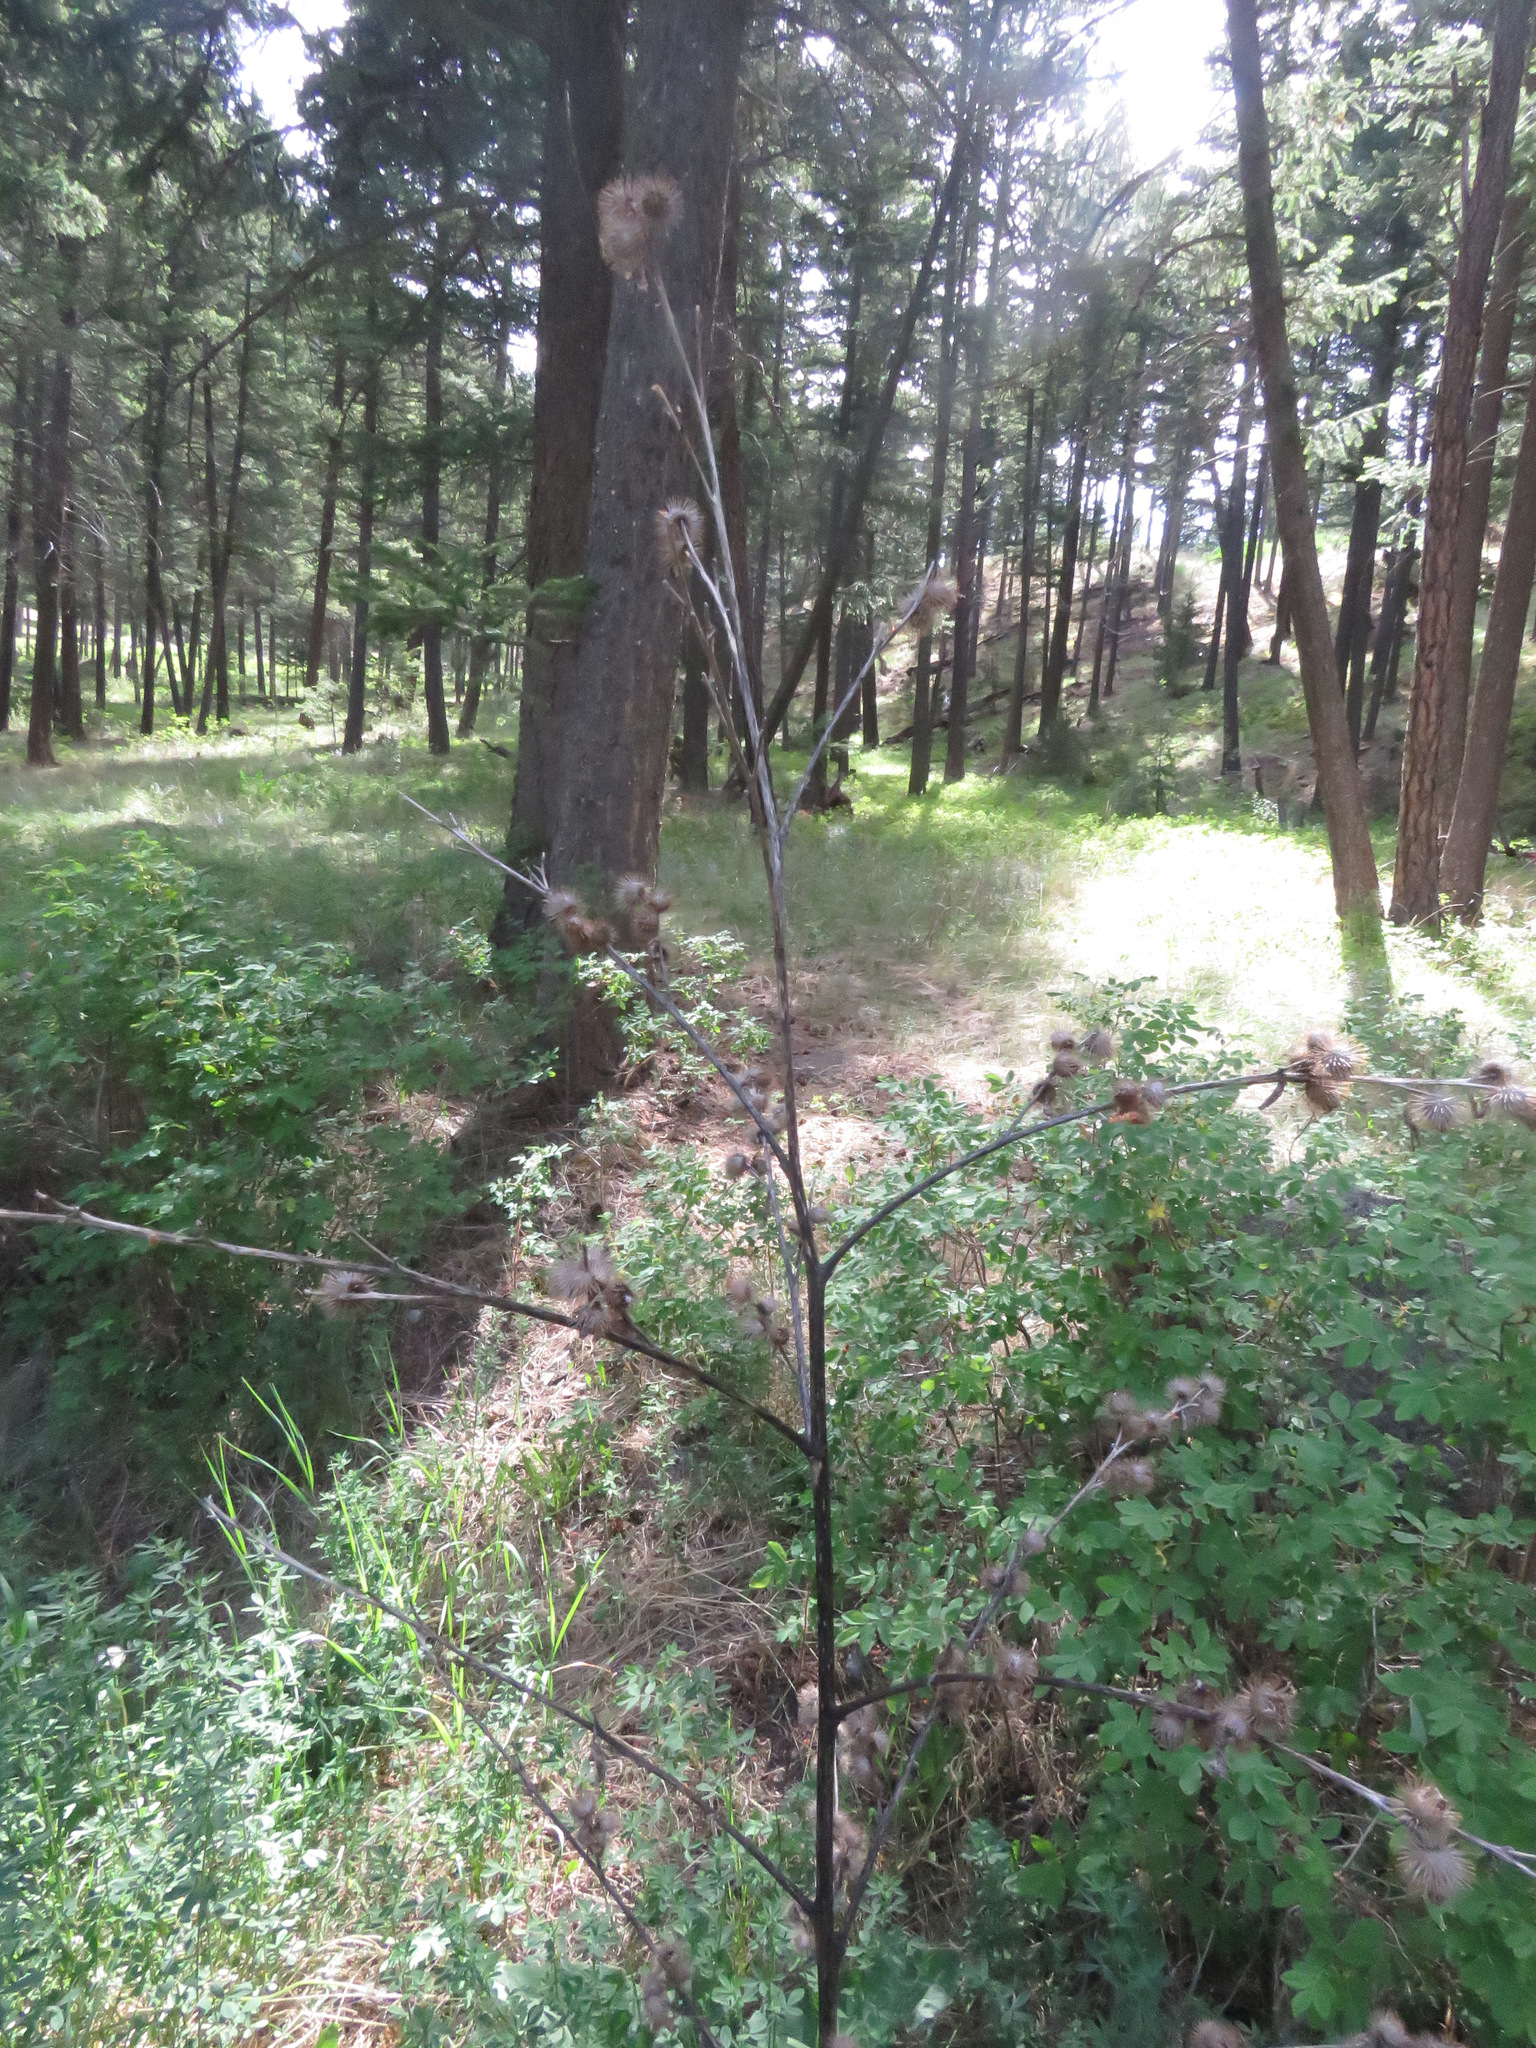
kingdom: Plantae
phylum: Tracheophyta
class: Magnoliopsida
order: Asterales
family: Asteraceae
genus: Arctium
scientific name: Arctium minus
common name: Lesser burdock
